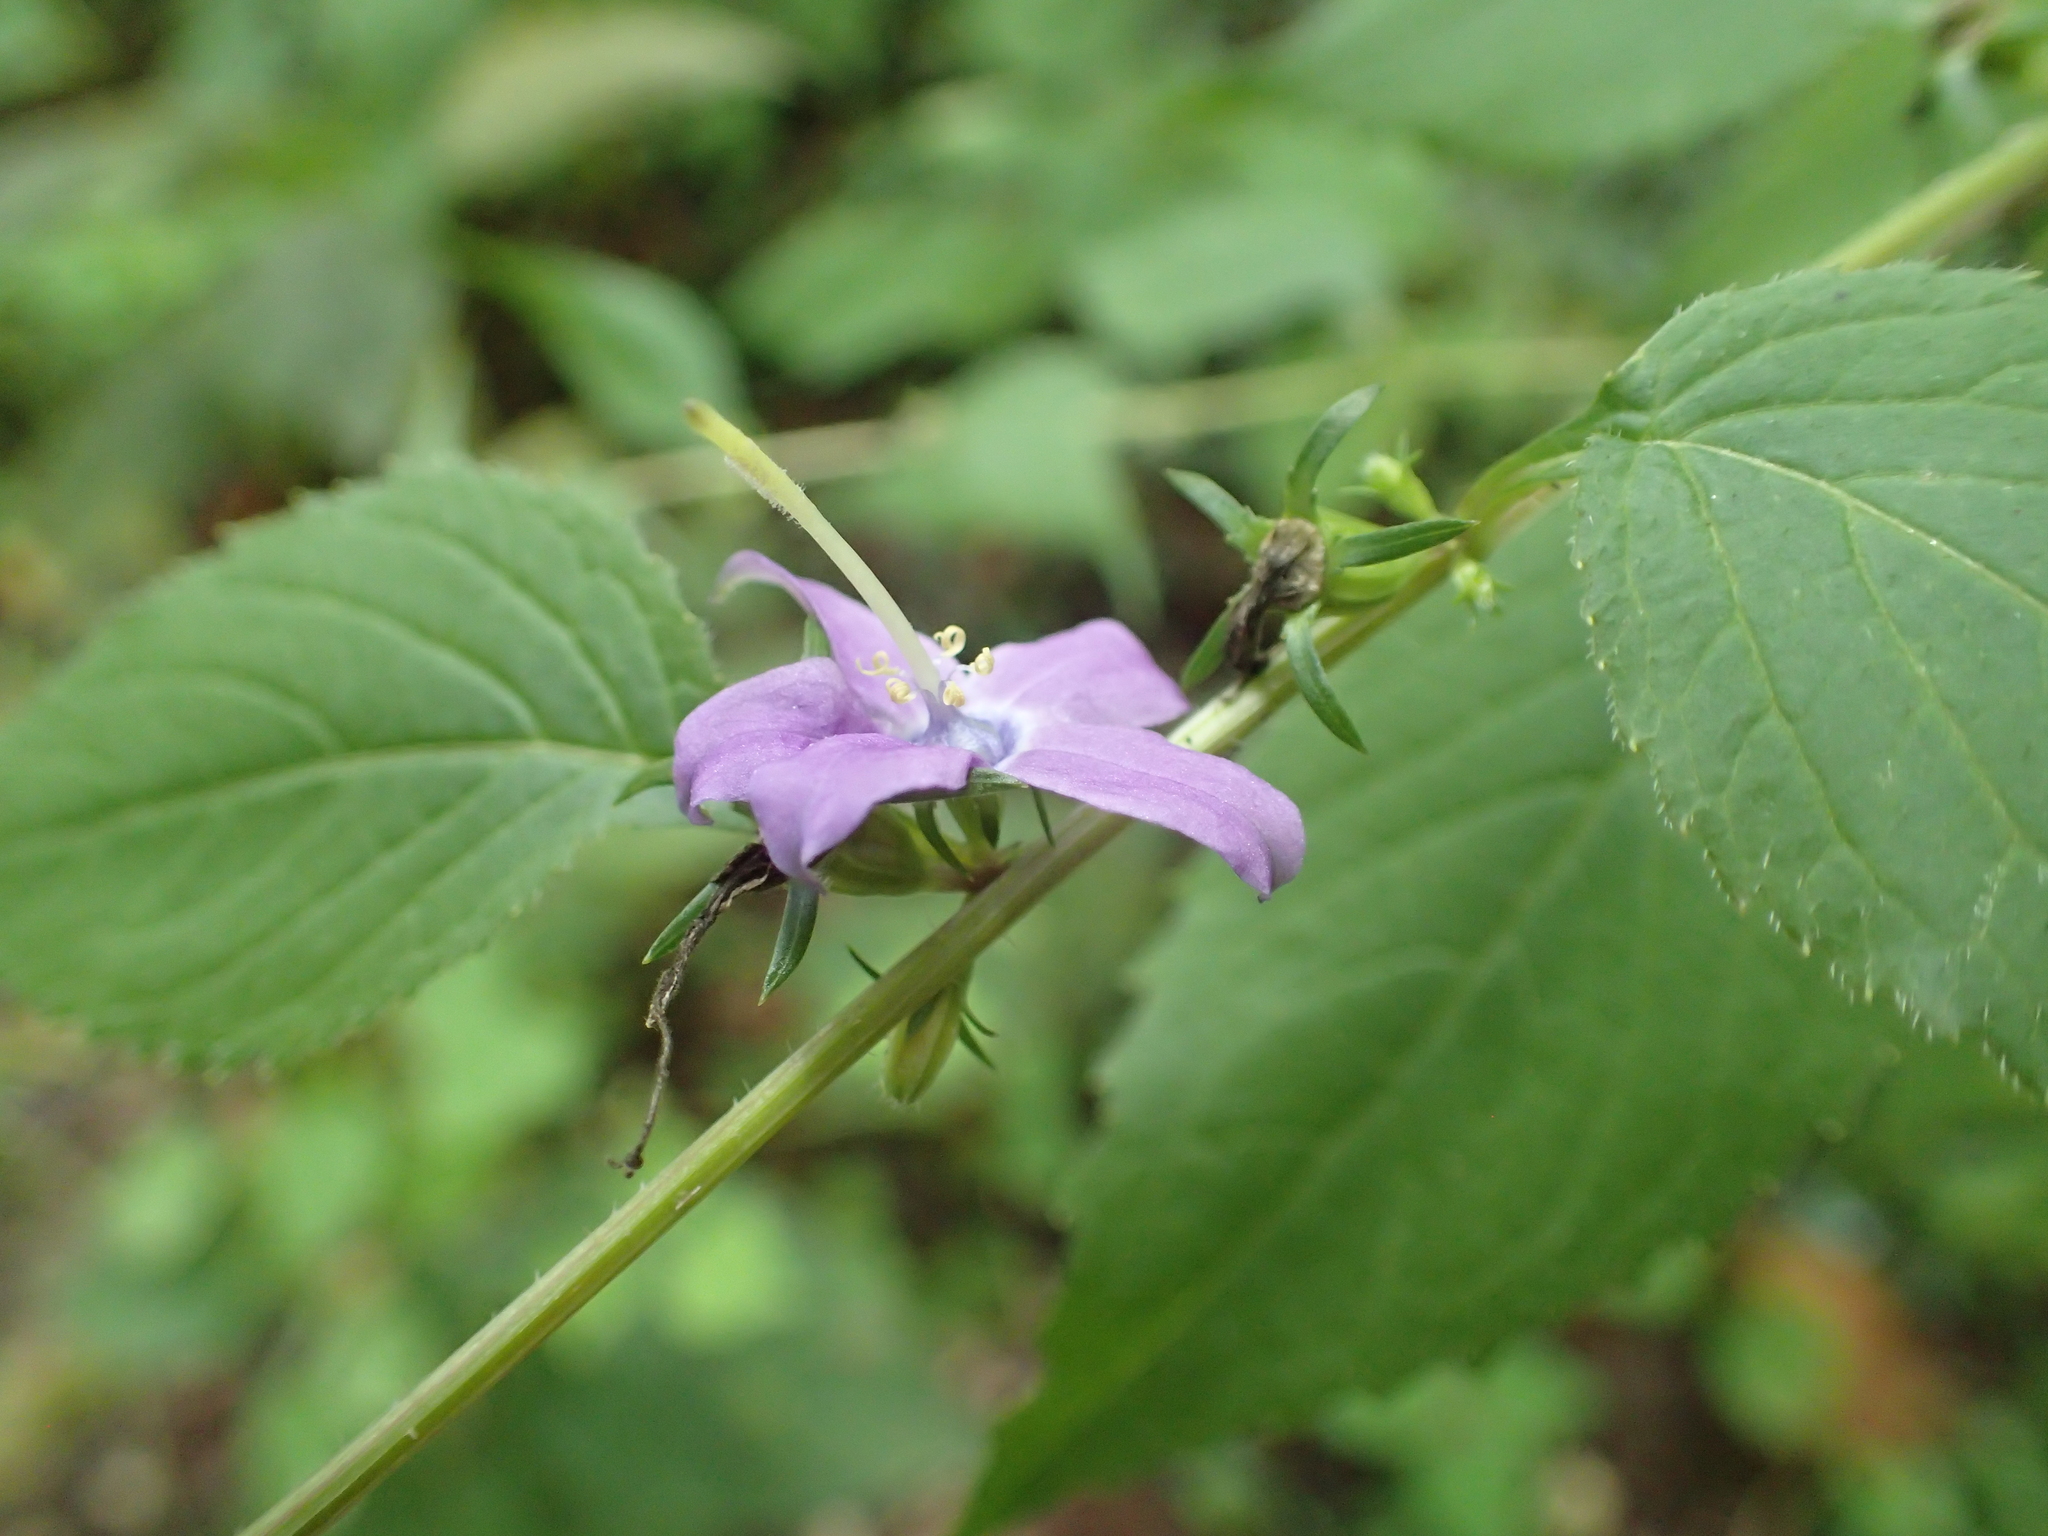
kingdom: Plantae
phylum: Tracheophyta
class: Magnoliopsida
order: Asterales
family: Campanulaceae
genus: Campanulastrum
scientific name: Campanulastrum americanum
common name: American bellflower
